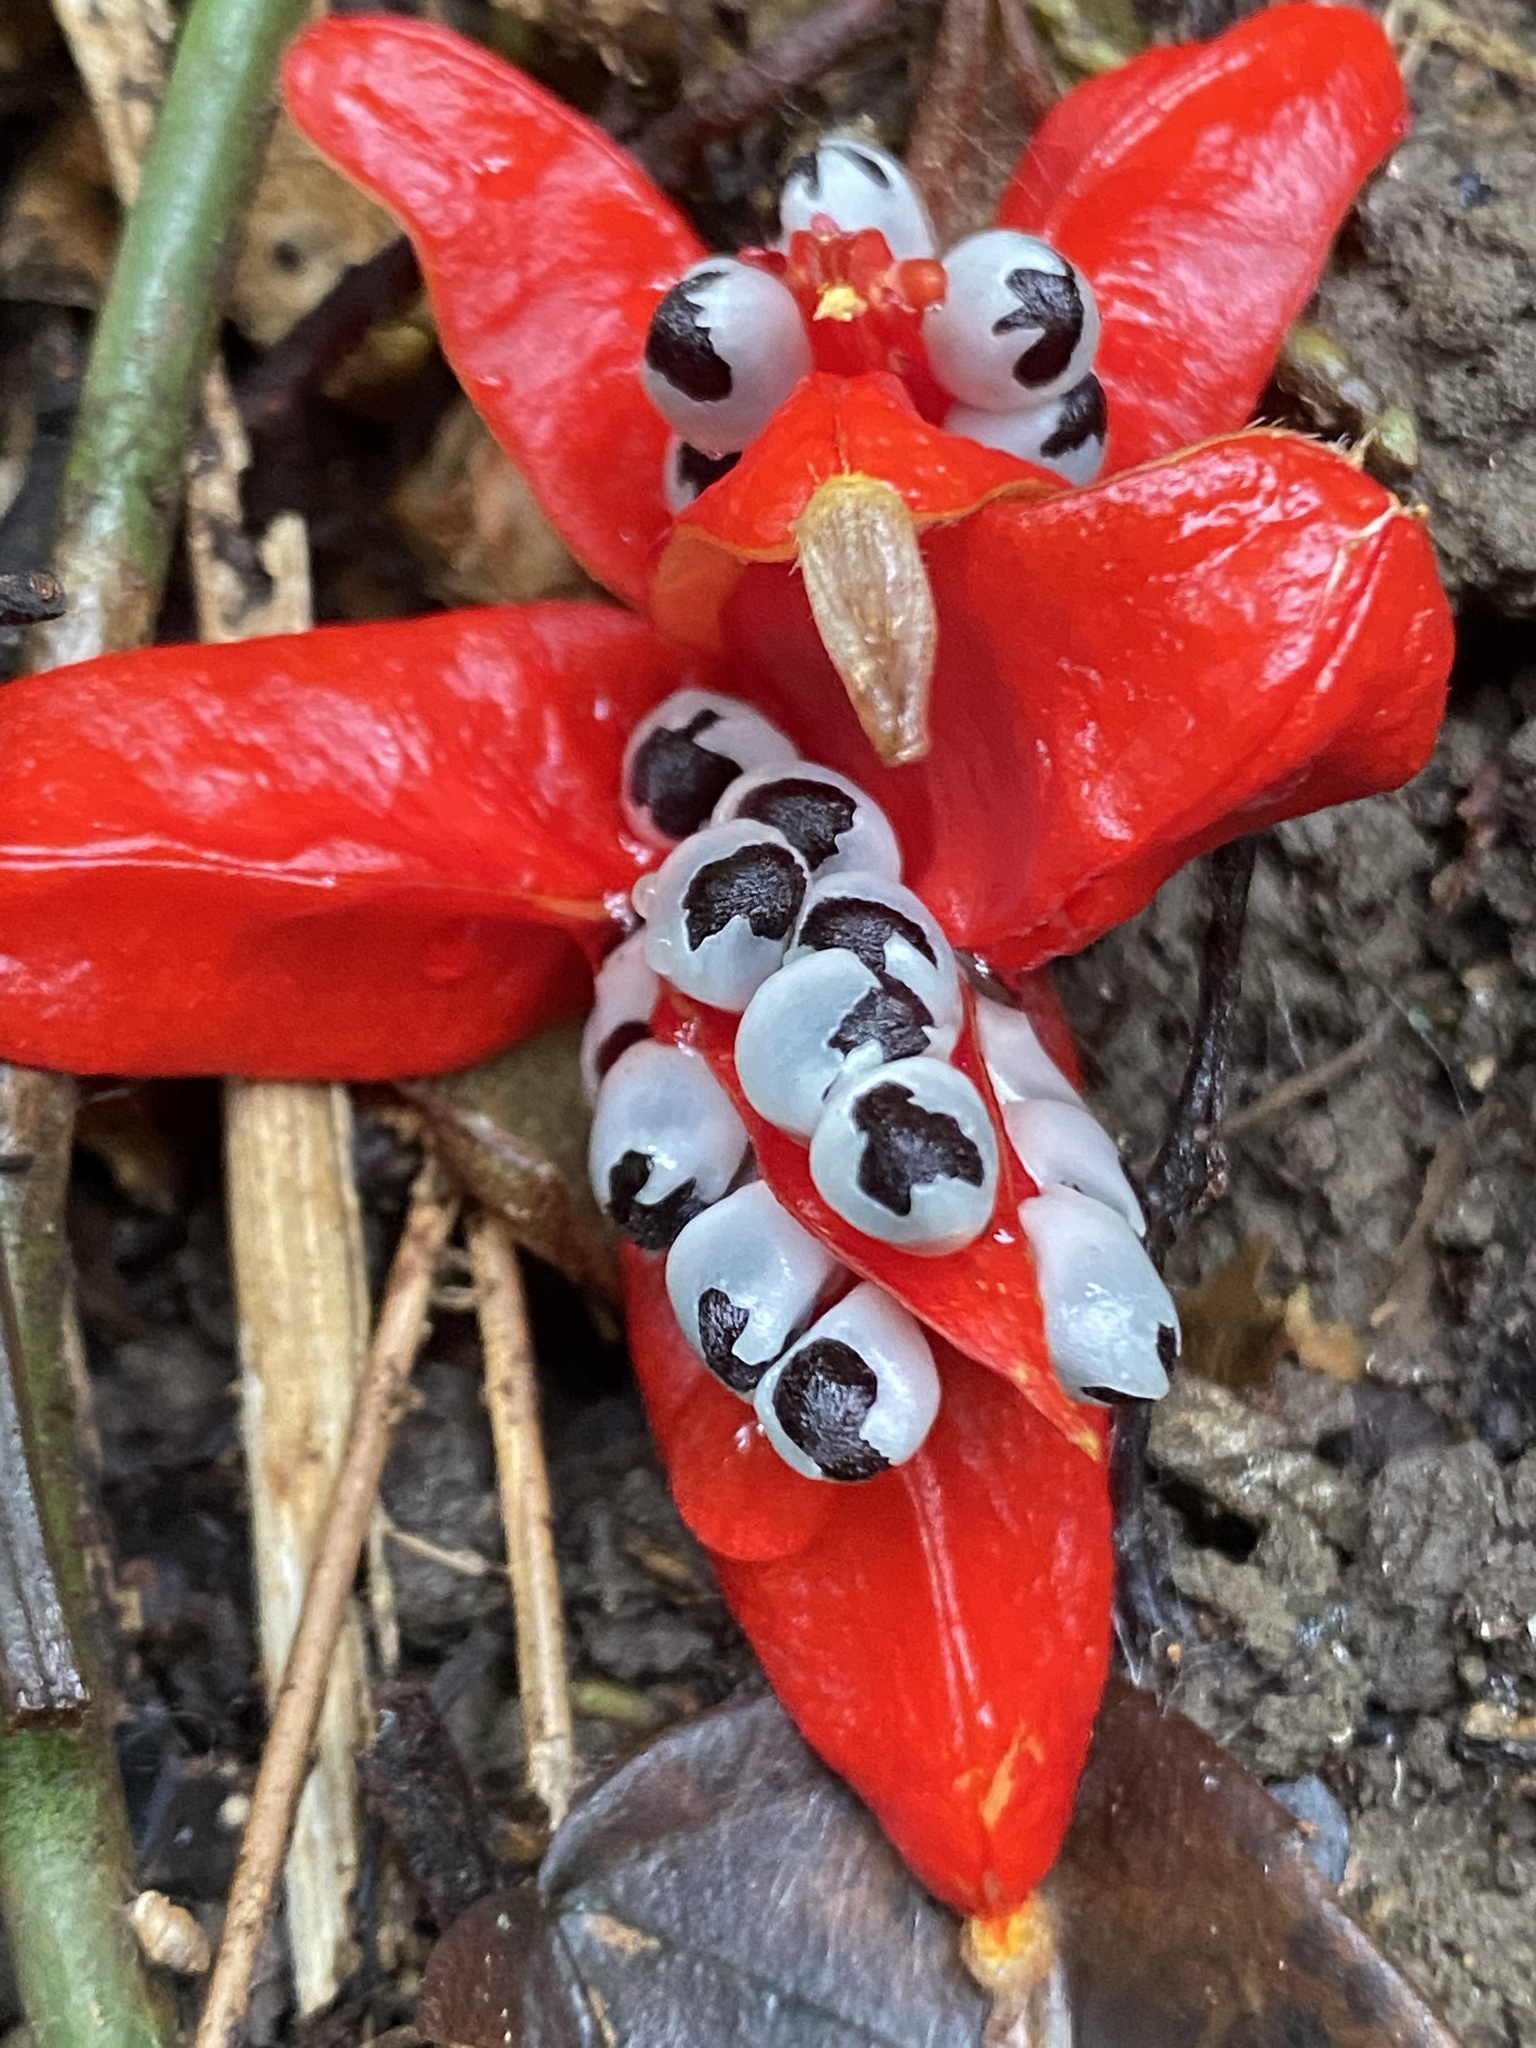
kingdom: Plantae
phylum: Tracheophyta
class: Liliopsida
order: Zingiberales
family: Zingiberaceae
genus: Zingiber
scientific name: Zingiber kawagoii
